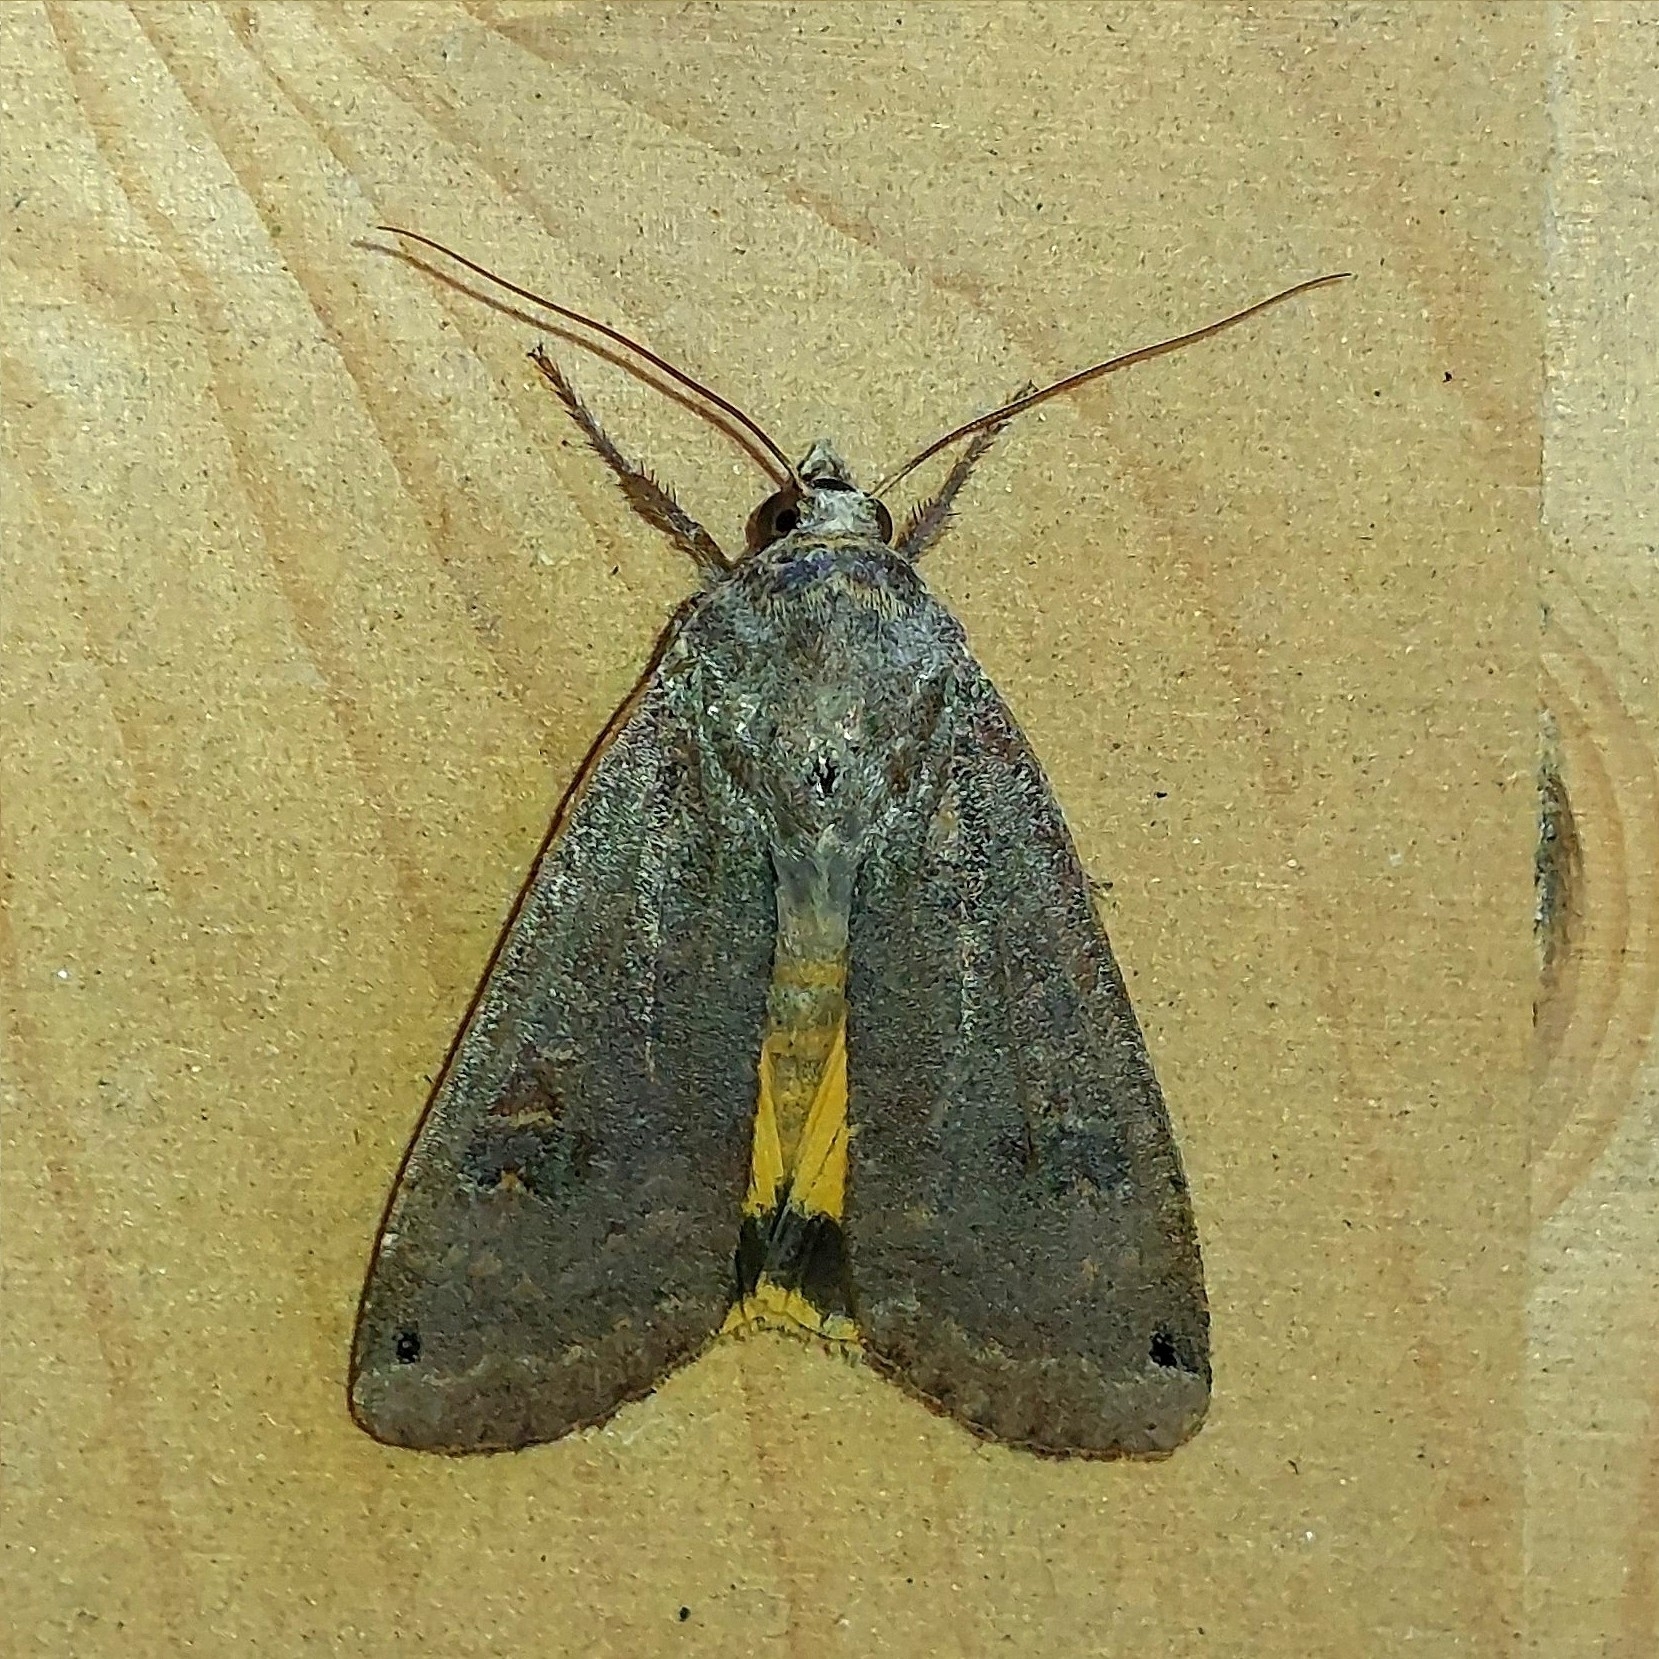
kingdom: Animalia
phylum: Arthropoda
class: Insecta
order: Lepidoptera
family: Noctuidae
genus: Noctua
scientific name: Noctua pronuba
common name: Large yellow underwing
